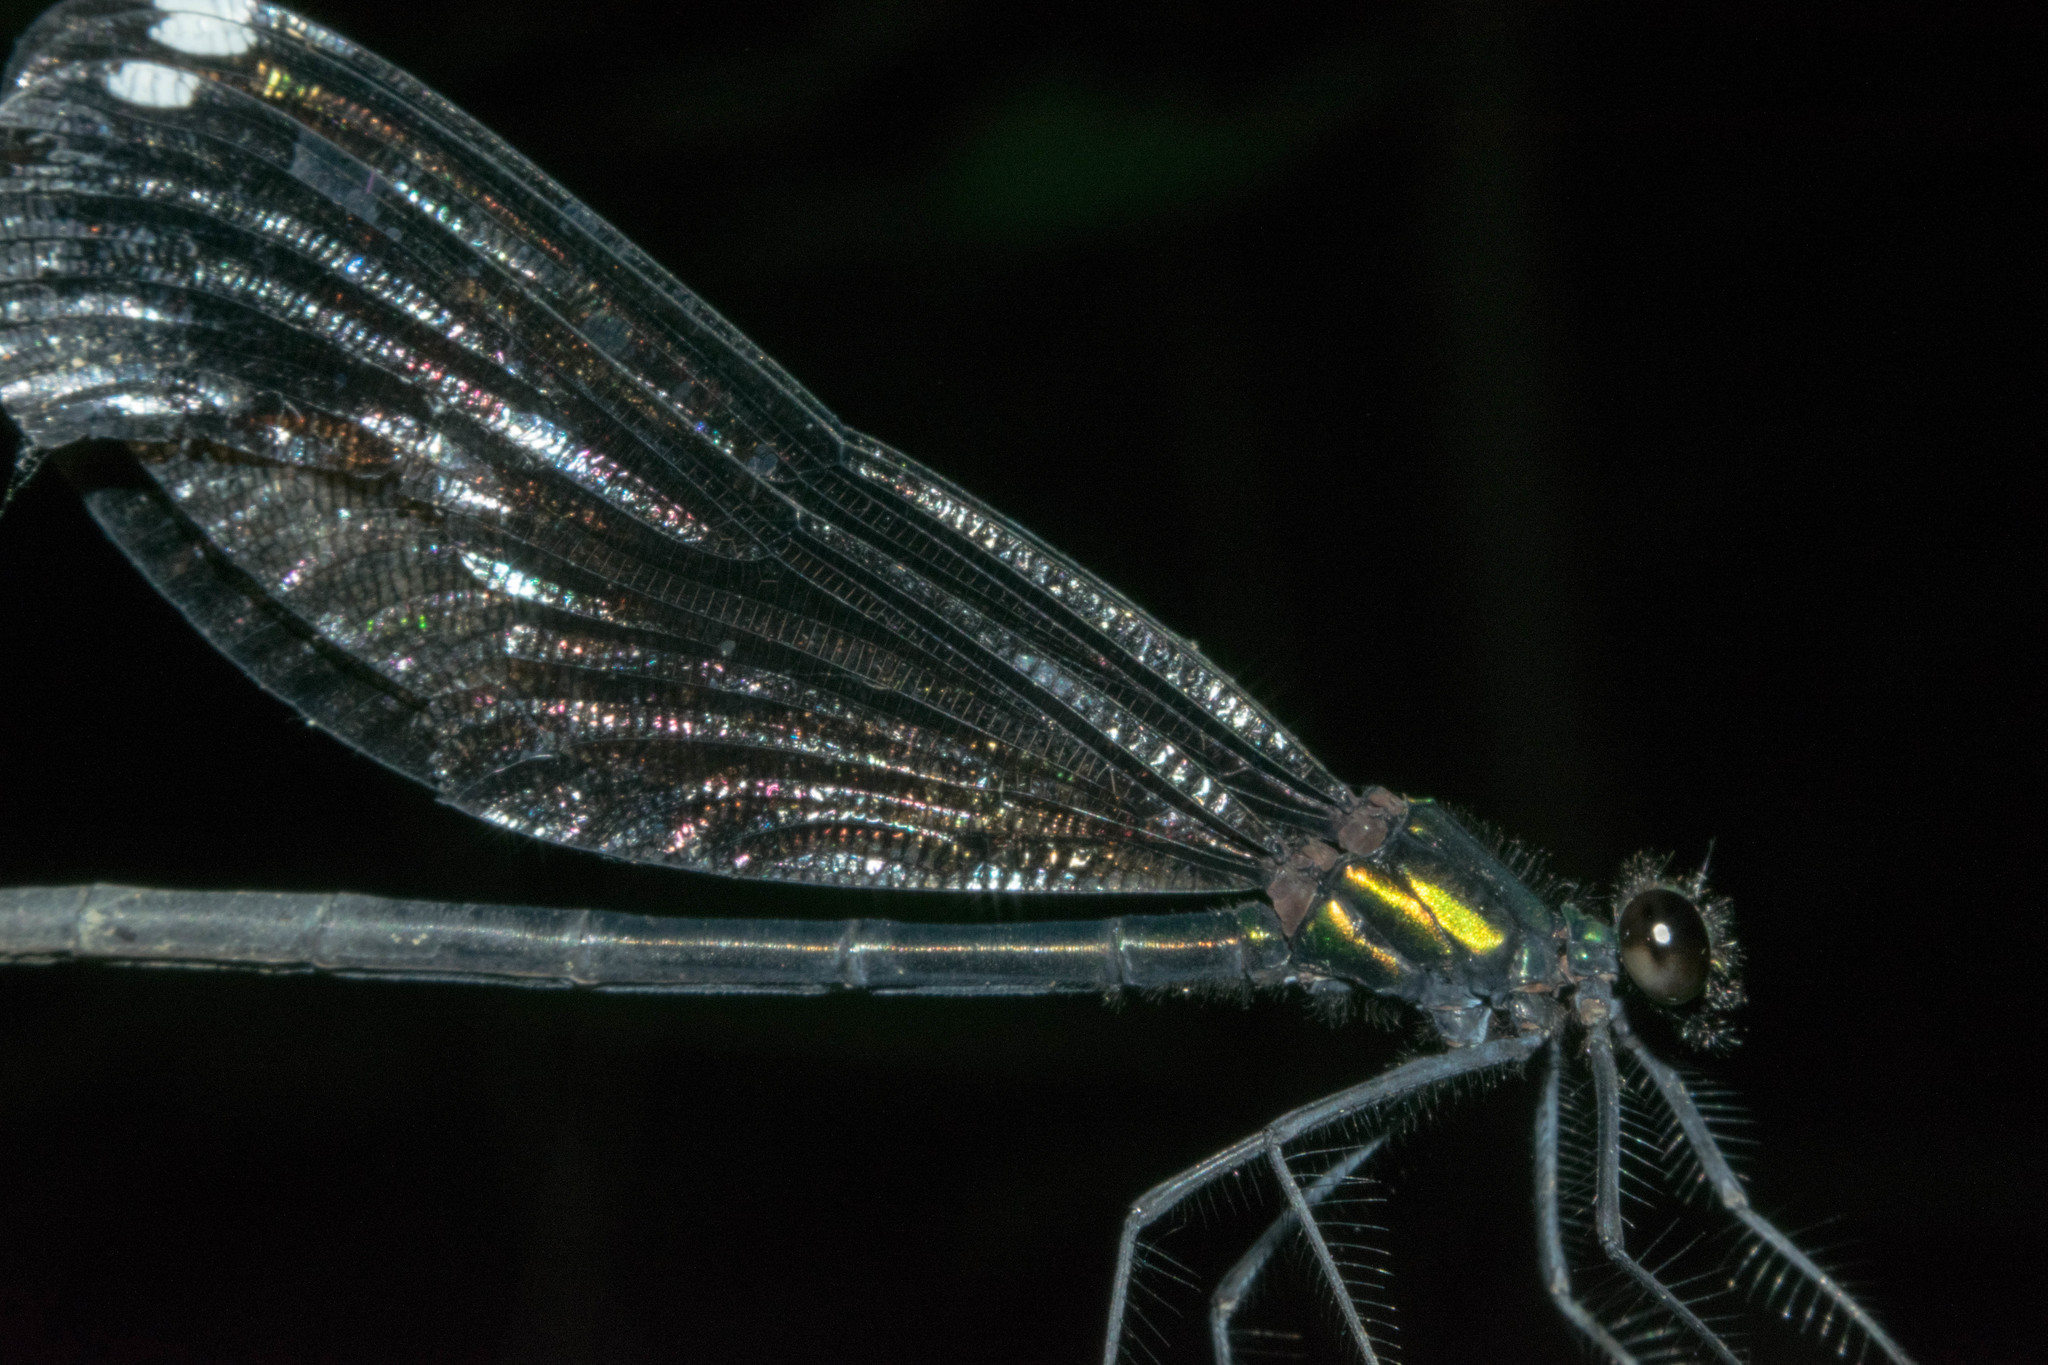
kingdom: Animalia
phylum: Arthropoda
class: Insecta
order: Odonata
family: Calopterygidae
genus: Calopteryx
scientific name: Calopteryx maculata
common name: Ebony jewelwing
